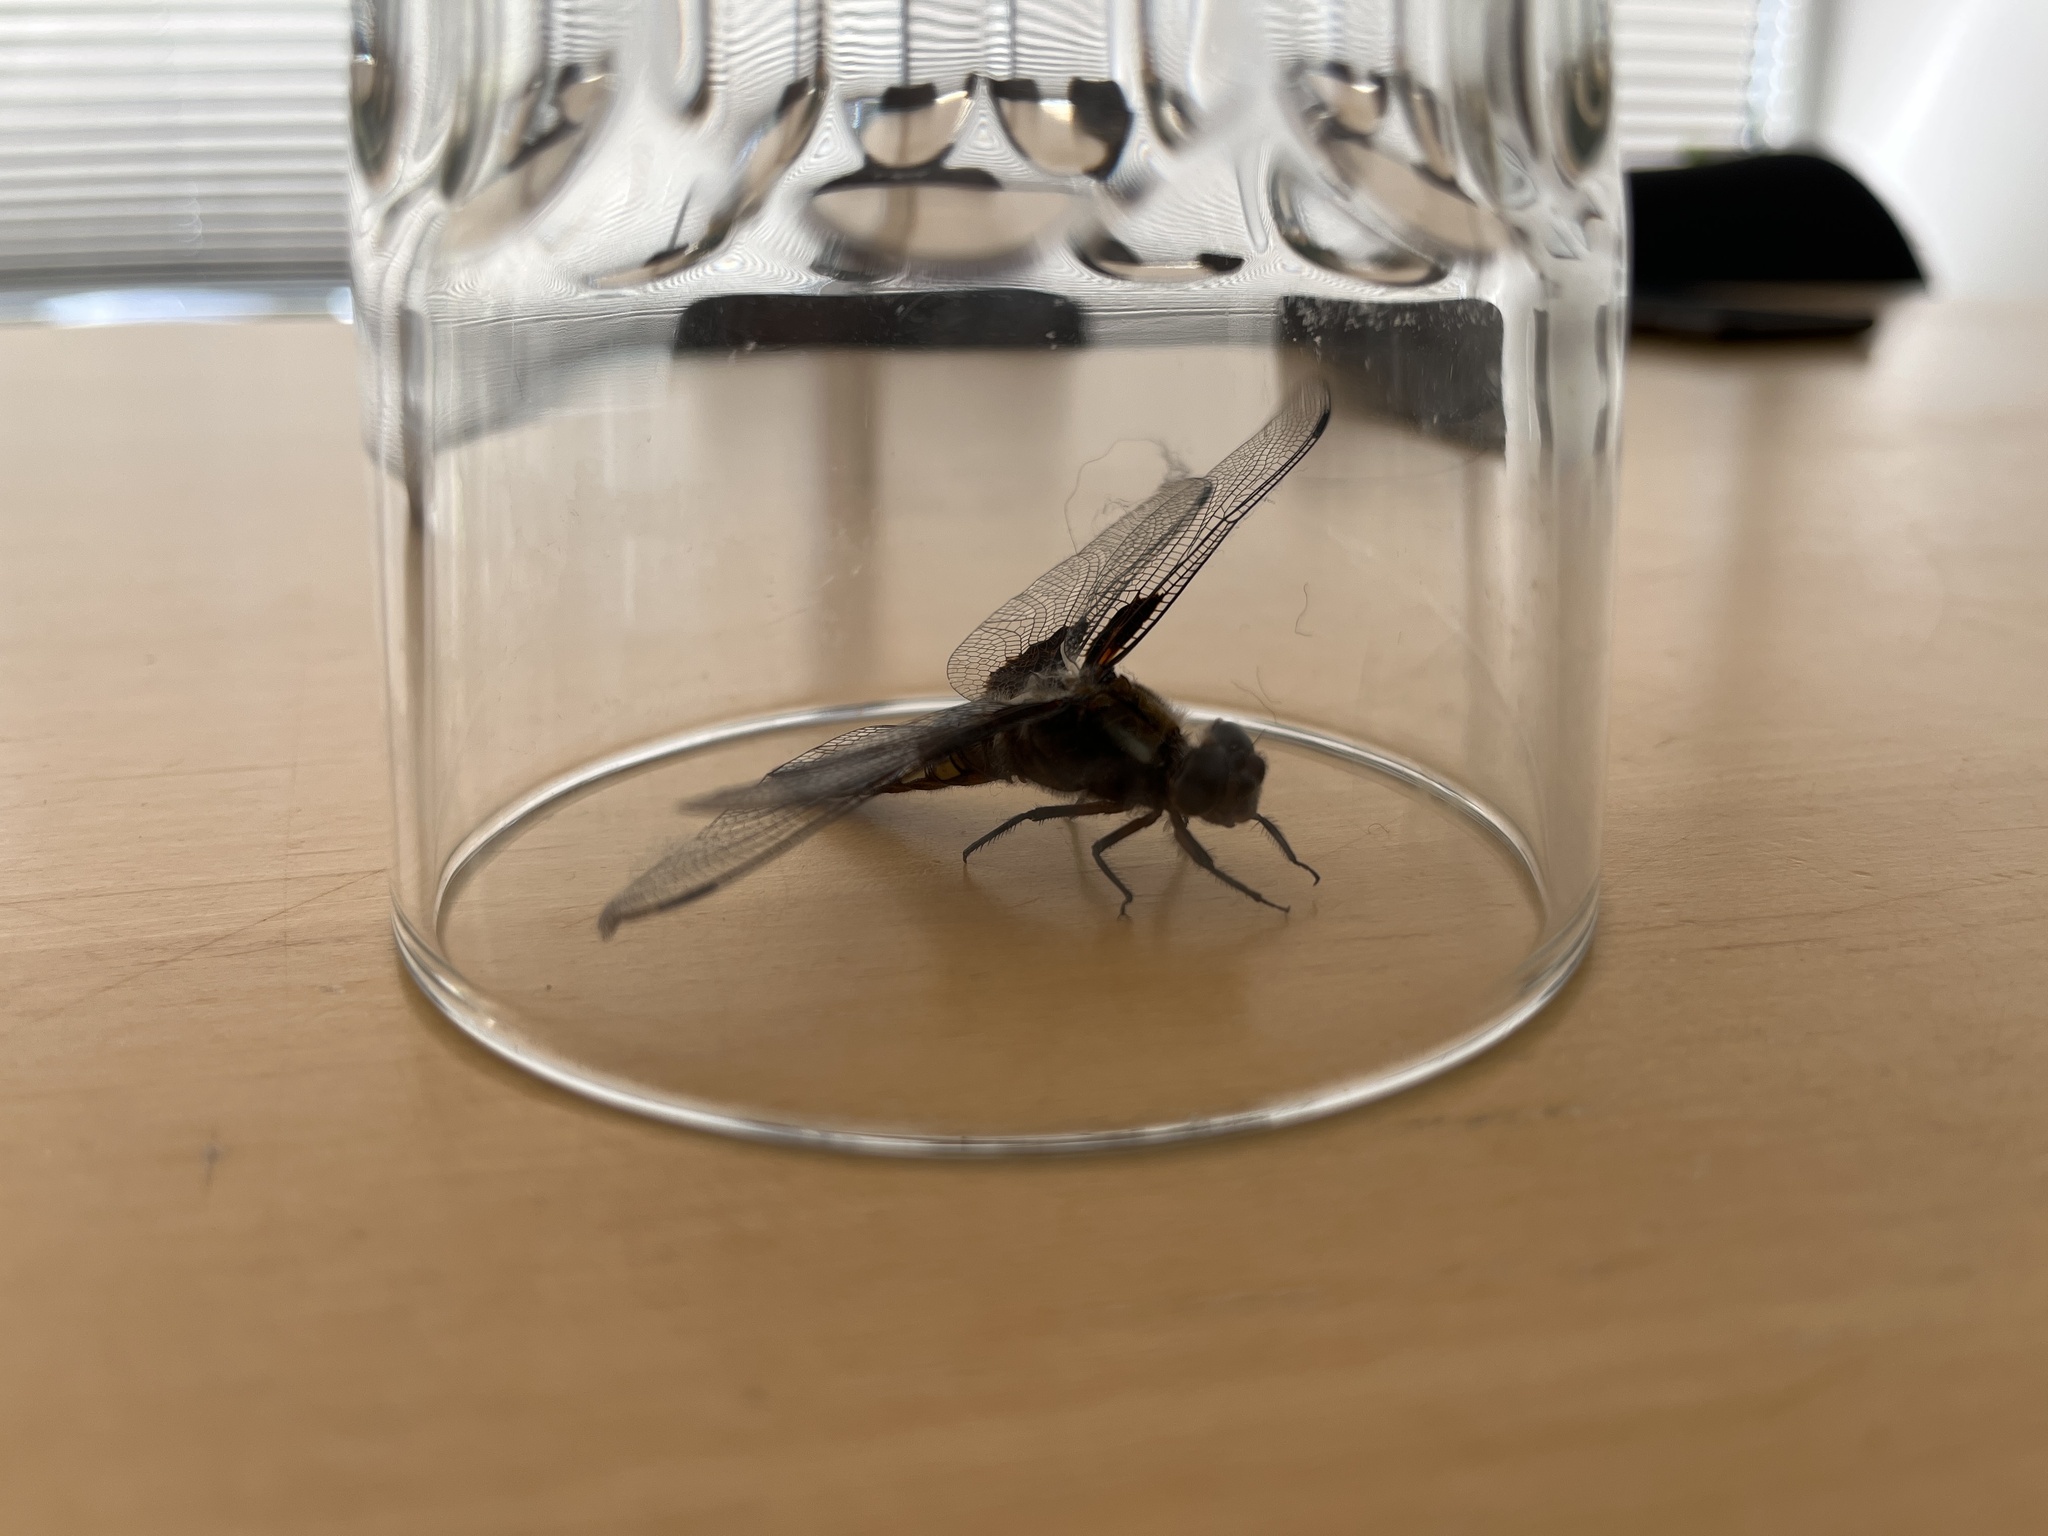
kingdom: Animalia
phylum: Arthropoda
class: Insecta
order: Odonata
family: Libellulidae
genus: Libellula
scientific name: Libellula depressa
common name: Broad-bodied chaser
